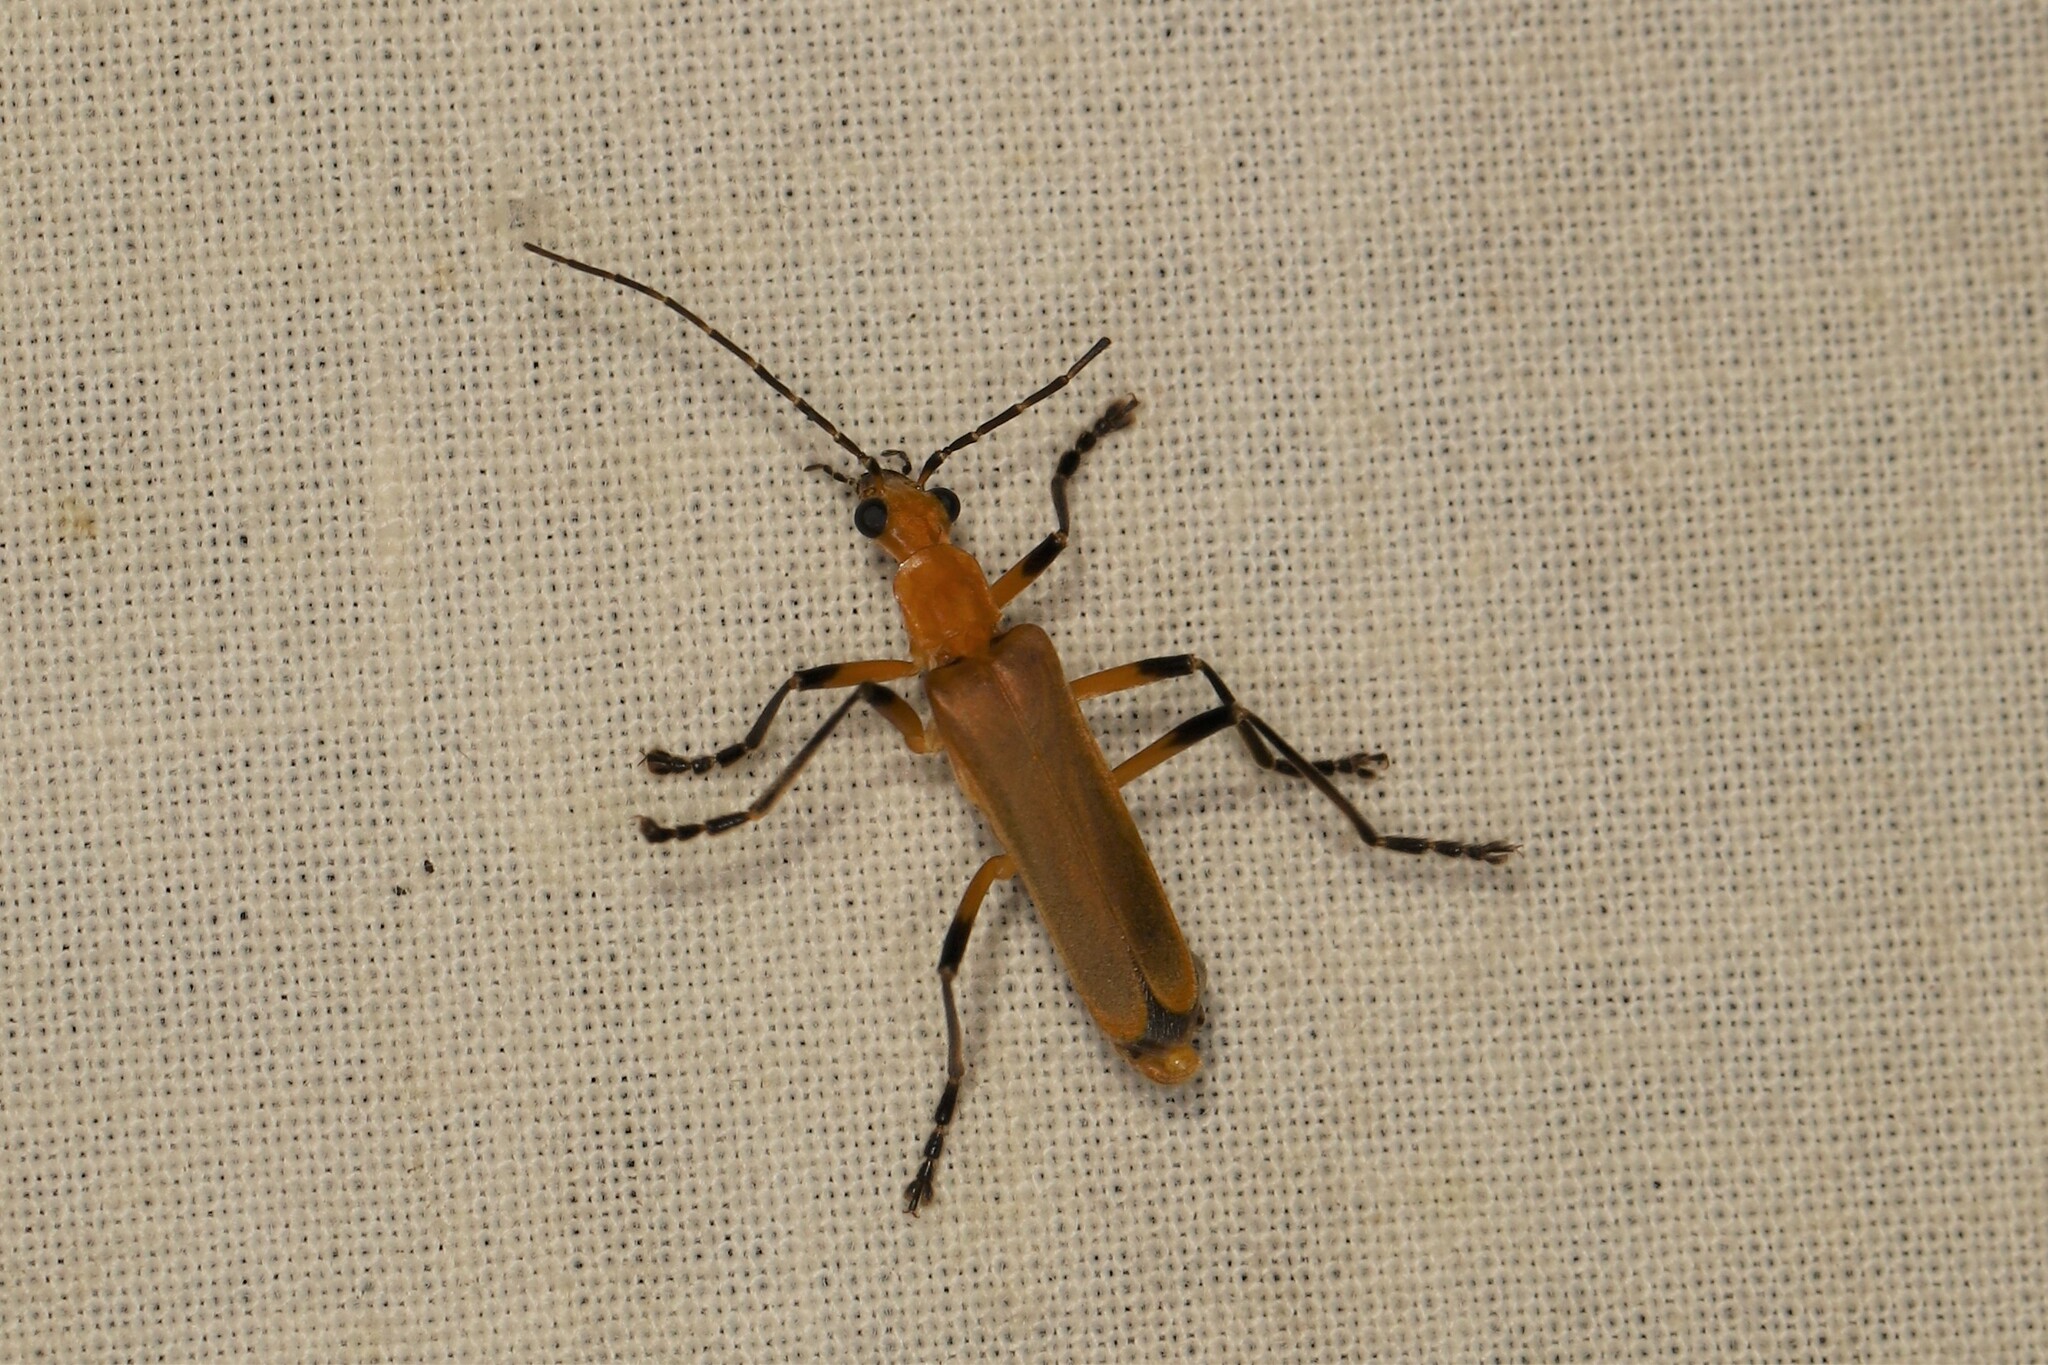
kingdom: Animalia
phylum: Arthropoda
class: Insecta
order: Coleoptera
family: Cantharidae
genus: Chauliognathus
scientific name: Chauliognathus
